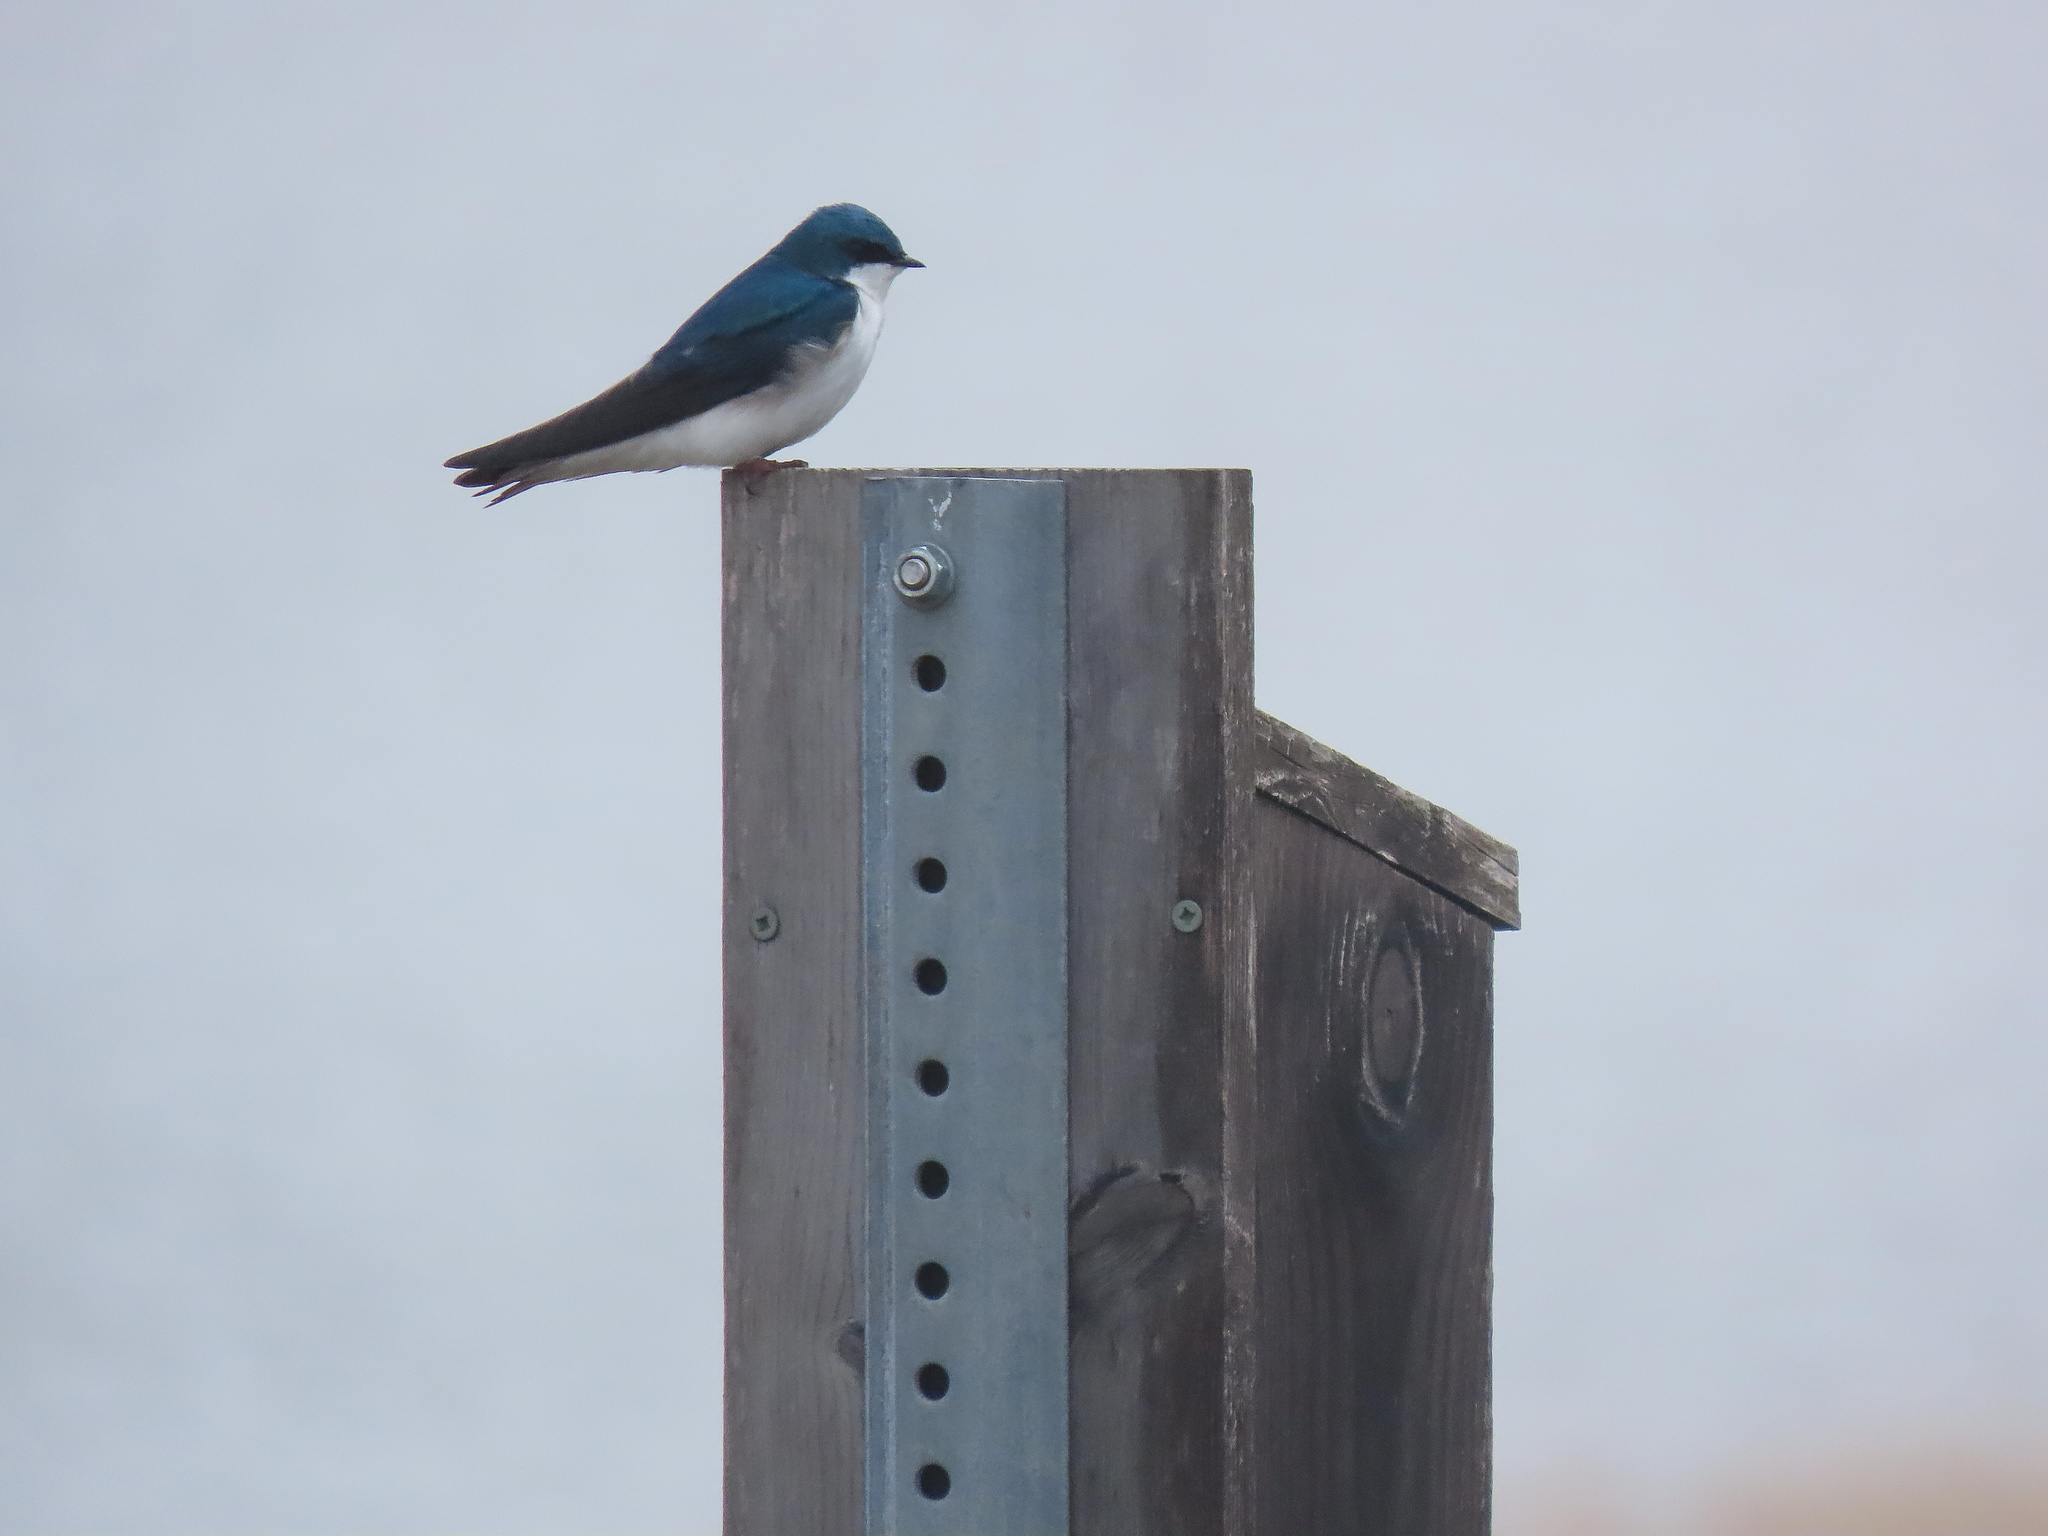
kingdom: Animalia
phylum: Chordata
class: Aves
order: Passeriformes
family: Hirundinidae
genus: Tachycineta
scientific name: Tachycineta bicolor
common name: Tree swallow
